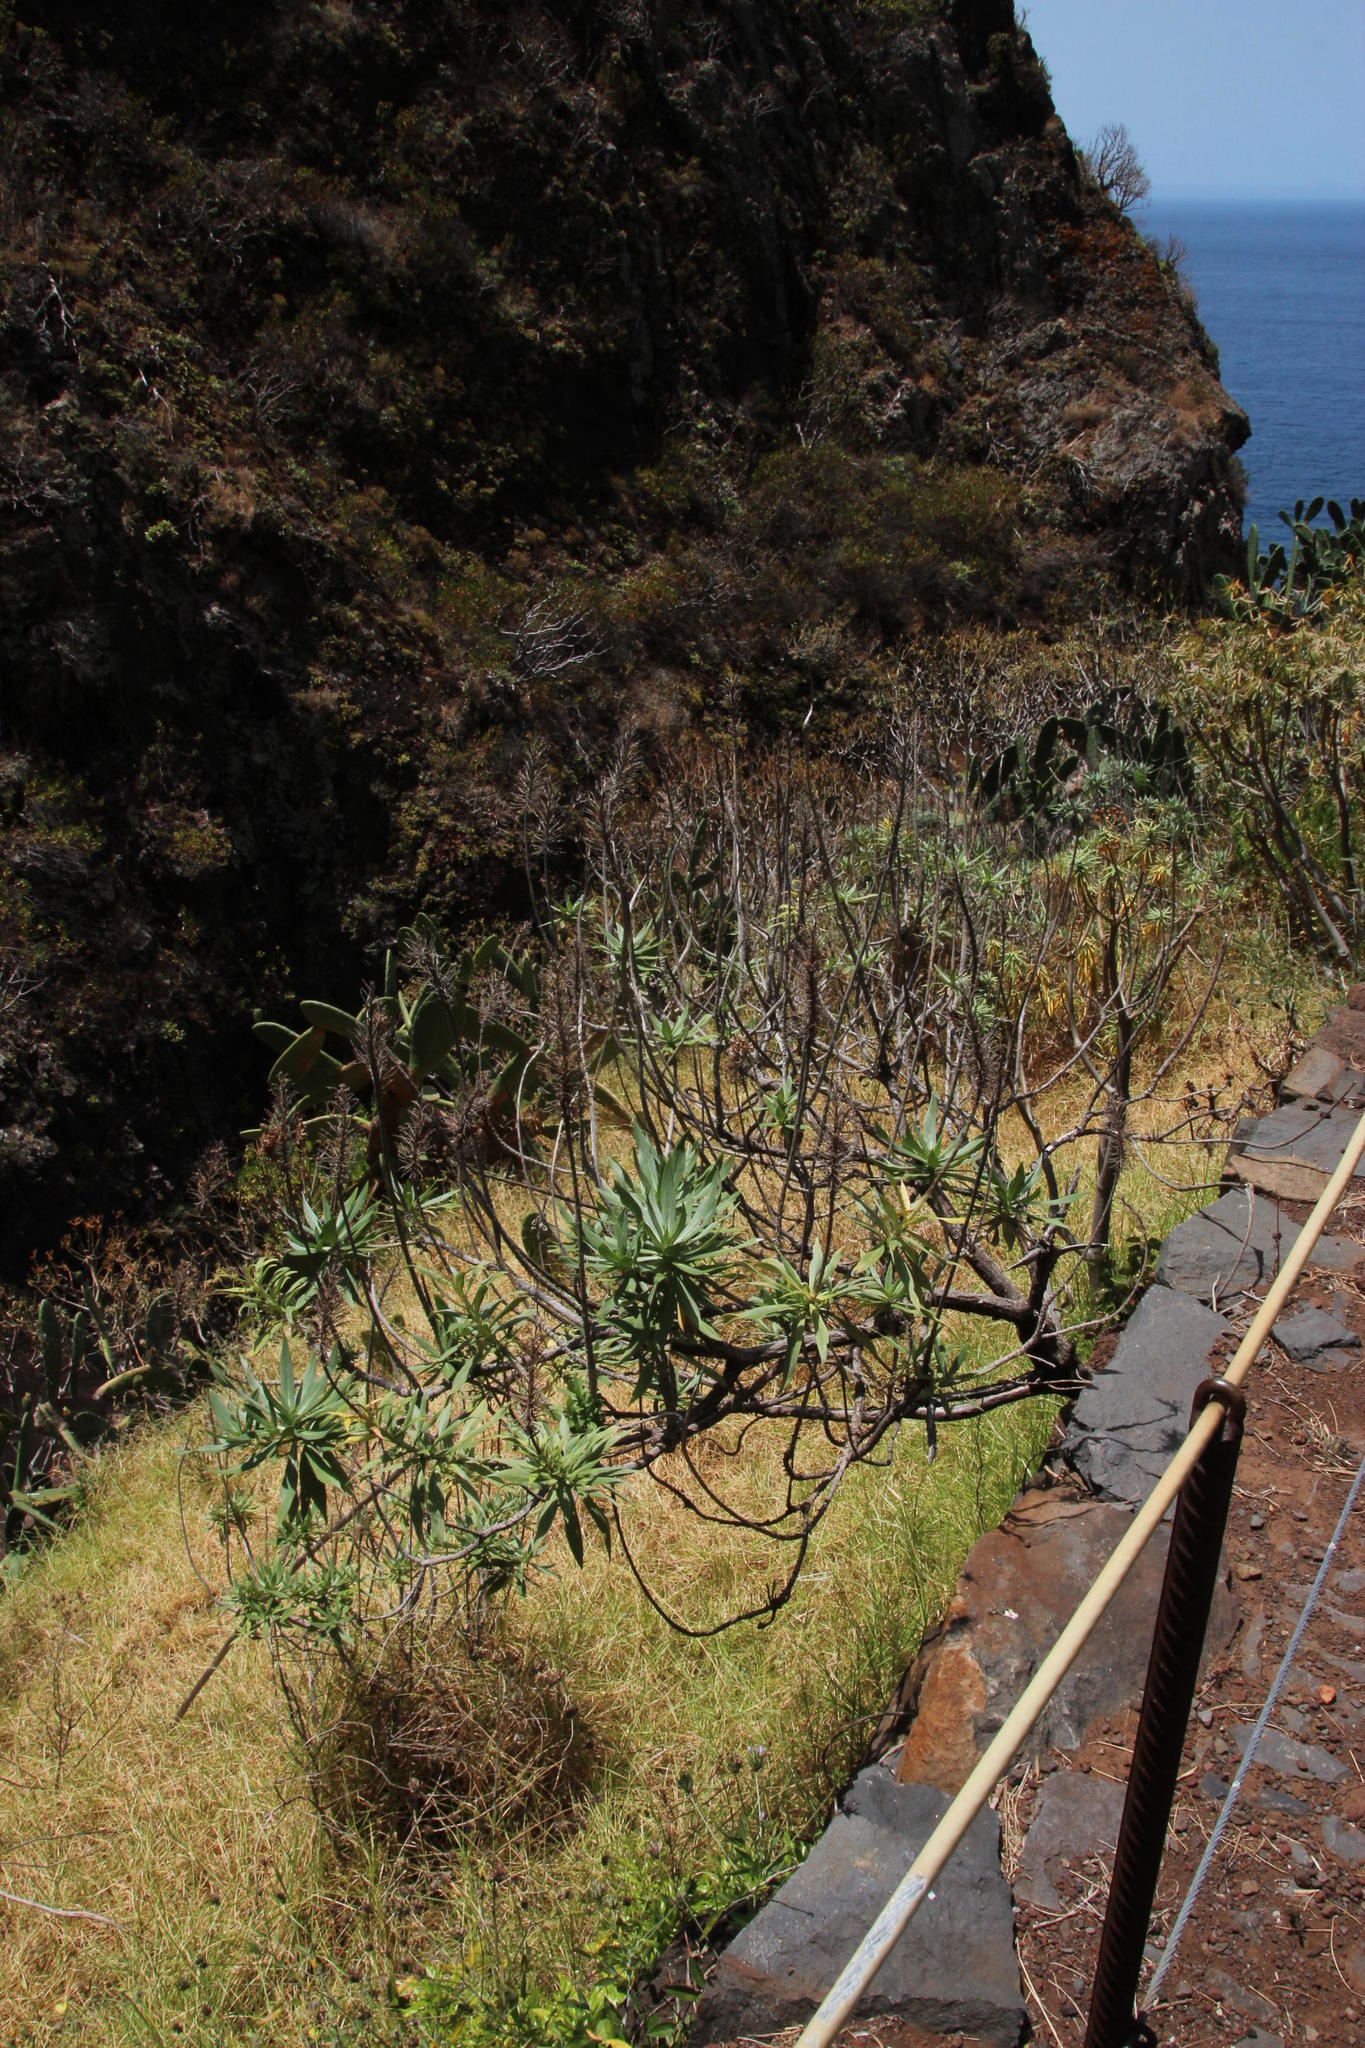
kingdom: Plantae
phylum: Tracheophyta
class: Magnoliopsida
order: Boraginales
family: Boraginaceae
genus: Echium
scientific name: Echium nervosum
